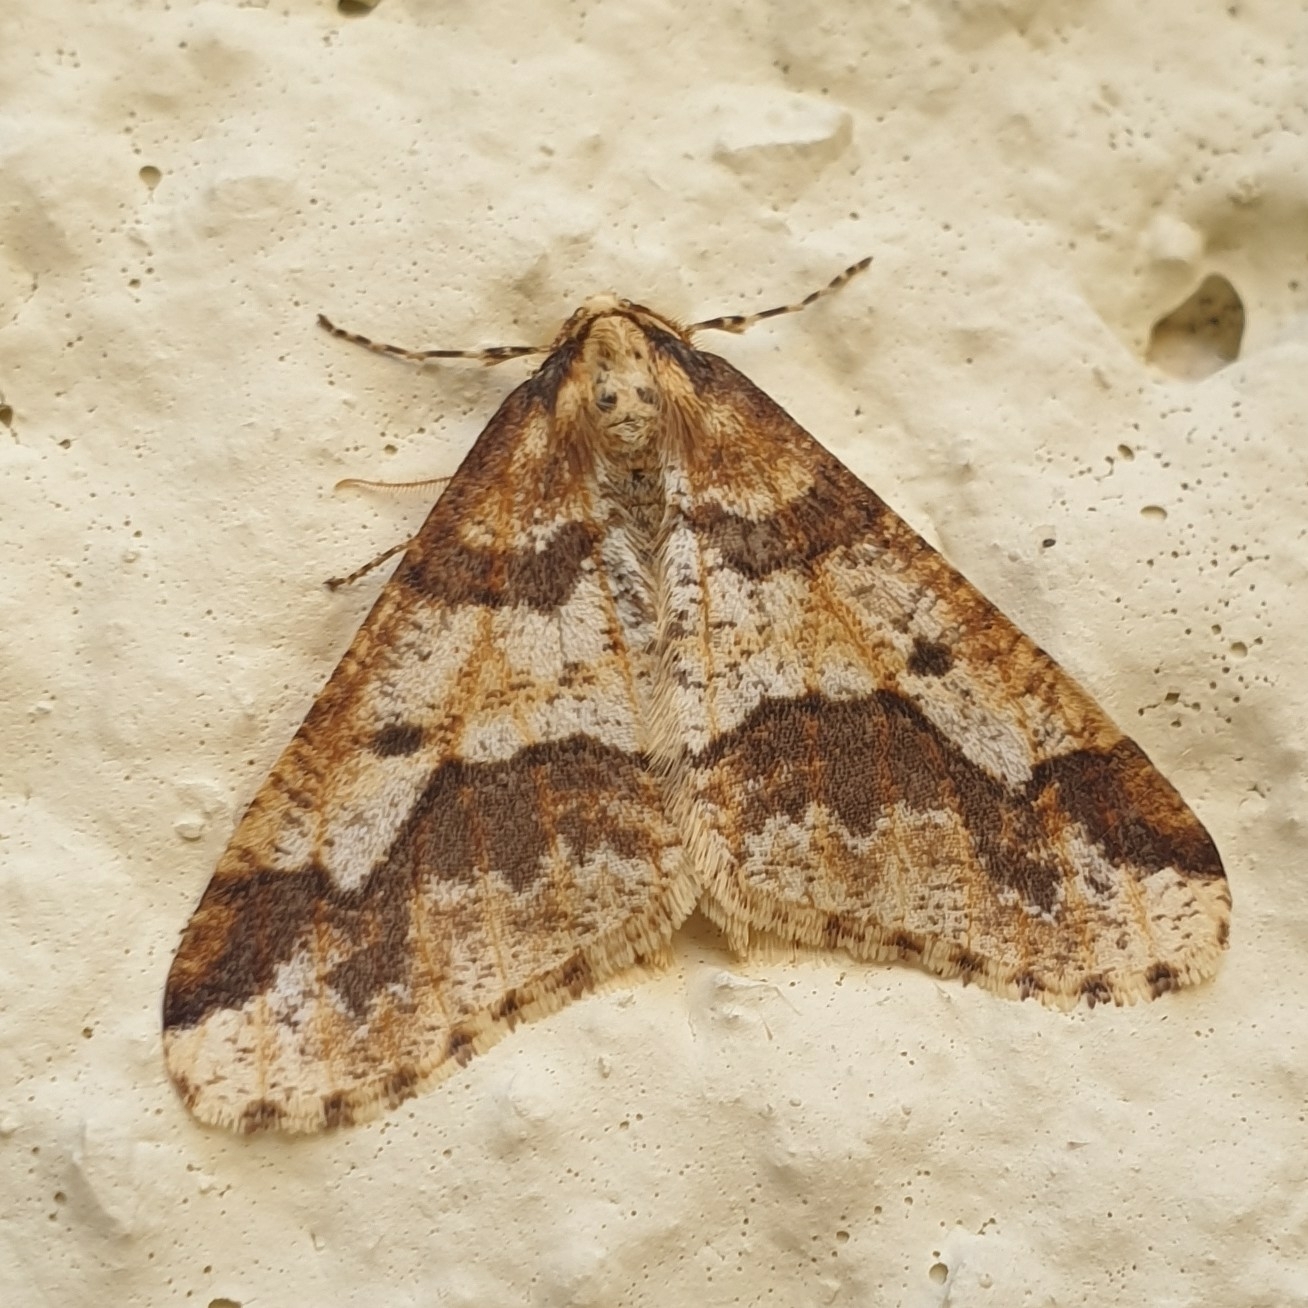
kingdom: Animalia
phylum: Arthropoda
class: Insecta
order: Lepidoptera
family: Geometridae
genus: Erannis
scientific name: Erannis defoliaria
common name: Mottled umber
